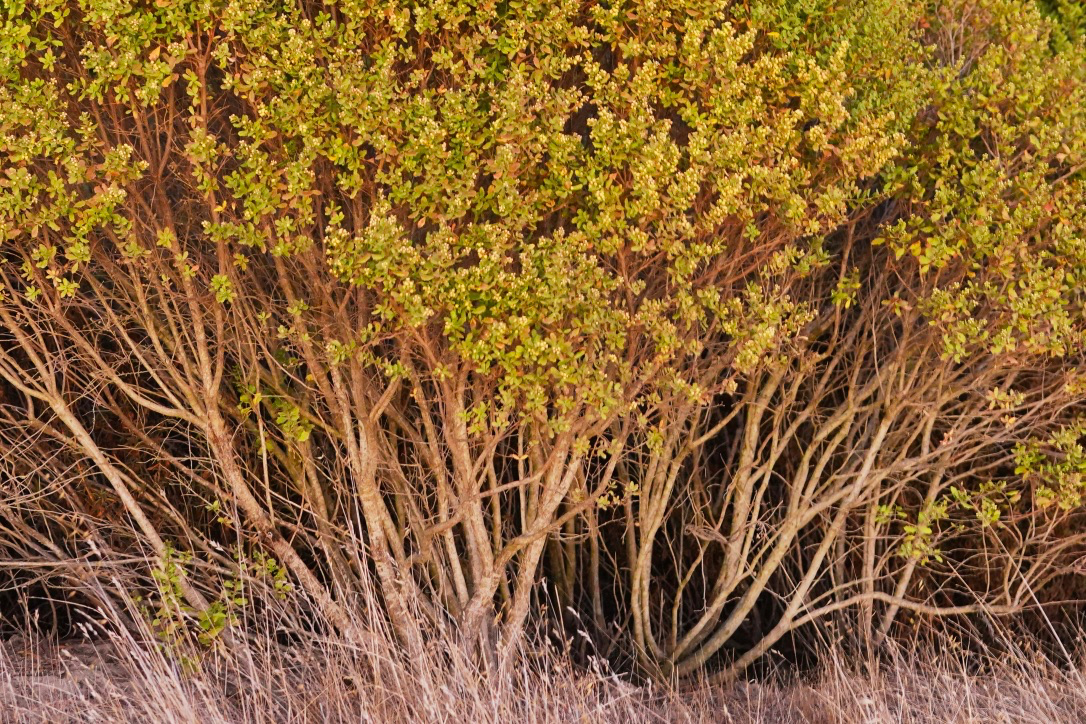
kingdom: Plantae
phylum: Tracheophyta
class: Magnoliopsida
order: Asterales
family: Asteraceae
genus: Baccharis
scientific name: Baccharis pilularis
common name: Coyotebrush
